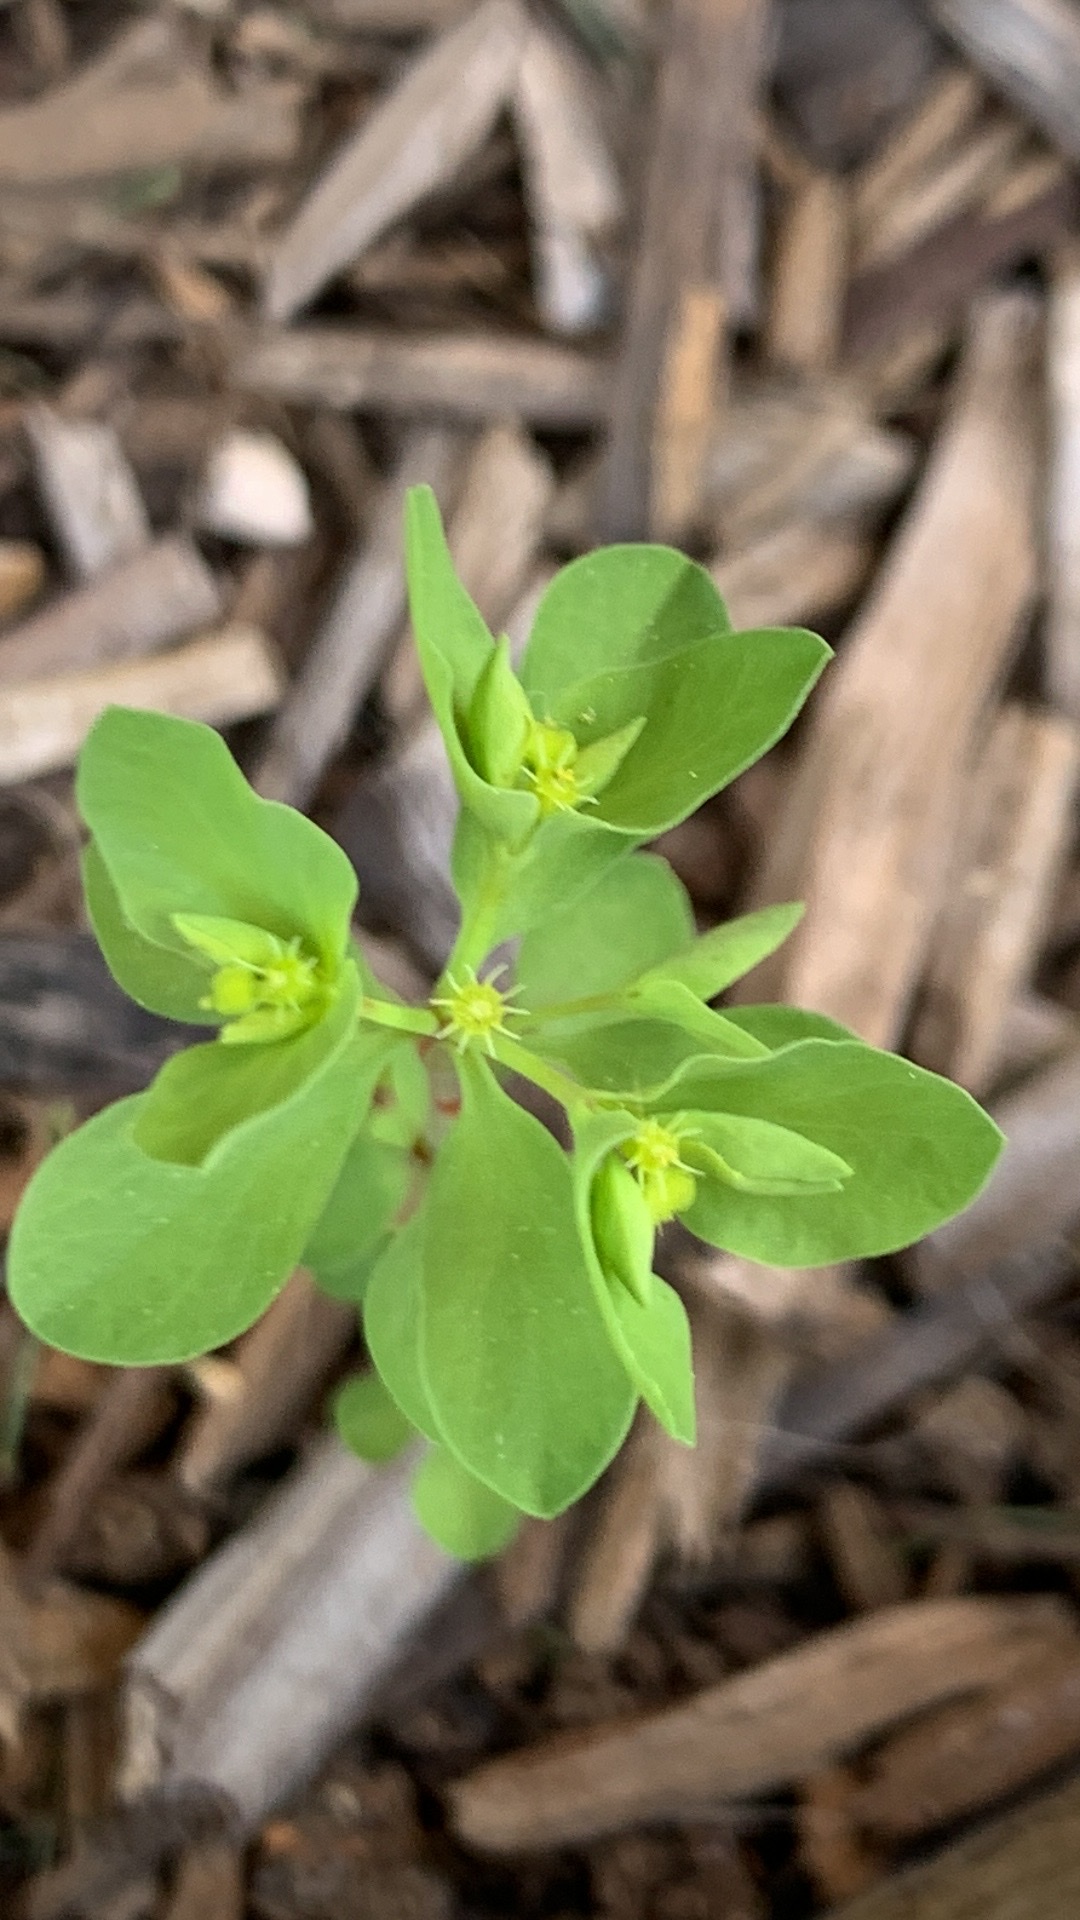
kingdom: Plantae
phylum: Tracheophyta
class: Magnoliopsida
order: Malpighiales
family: Euphorbiaceae
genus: Euphorbia
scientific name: Euphorbia peplus
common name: Petty spurge
